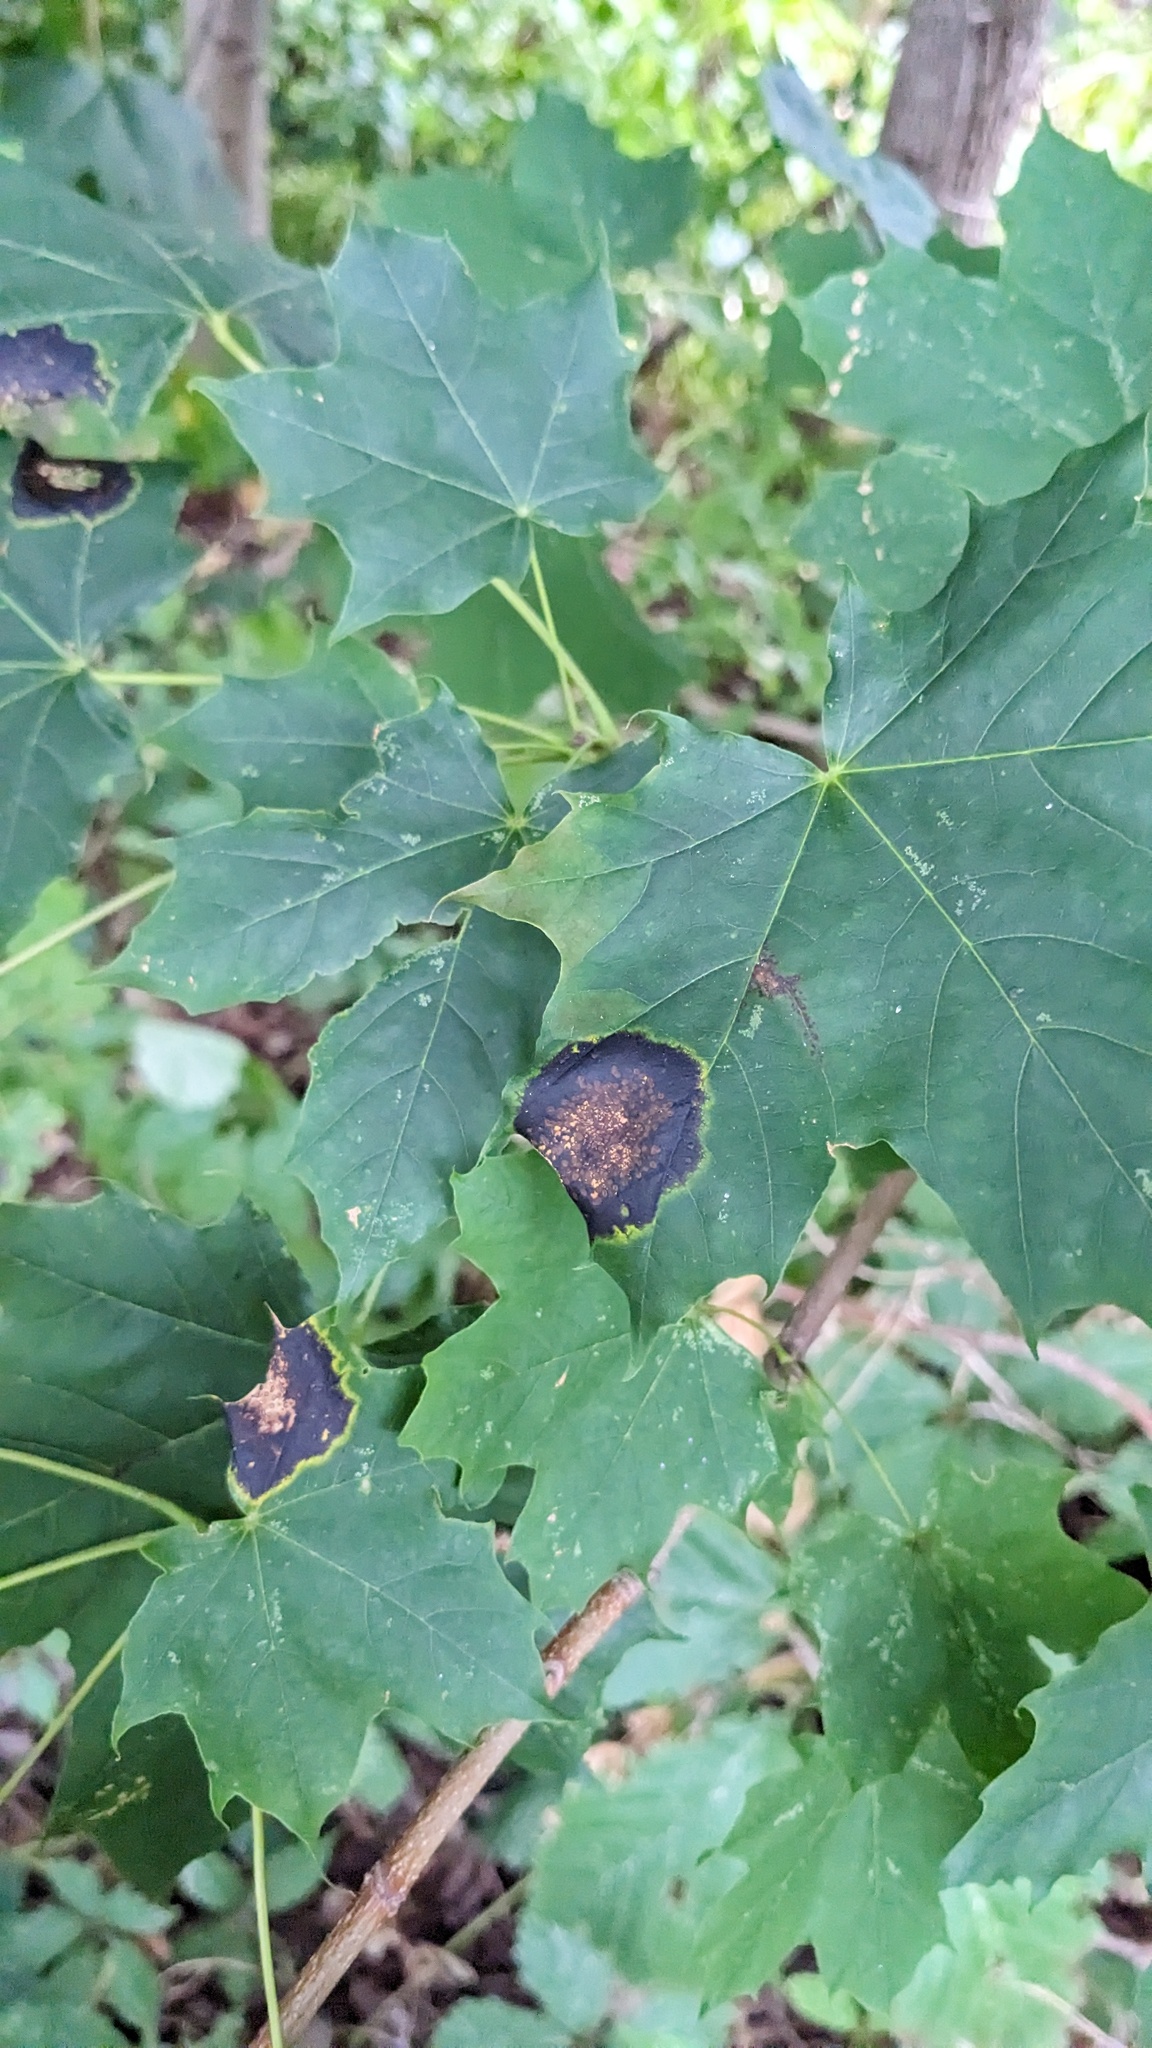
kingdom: Fungi
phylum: Ascomycota
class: Leotiomycetes
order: Rhytismatales
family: Rhytismataceae
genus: Rhytisma
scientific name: Rhytisma acerinum
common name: European tar spot
